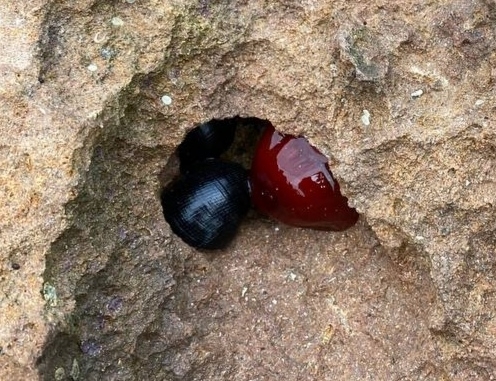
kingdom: Animalia
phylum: Cnidaria
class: Anthozoa
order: Actiniaria
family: Actiniidae
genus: Actinia
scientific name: Actinia tenebrosa
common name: Waratah anemone
